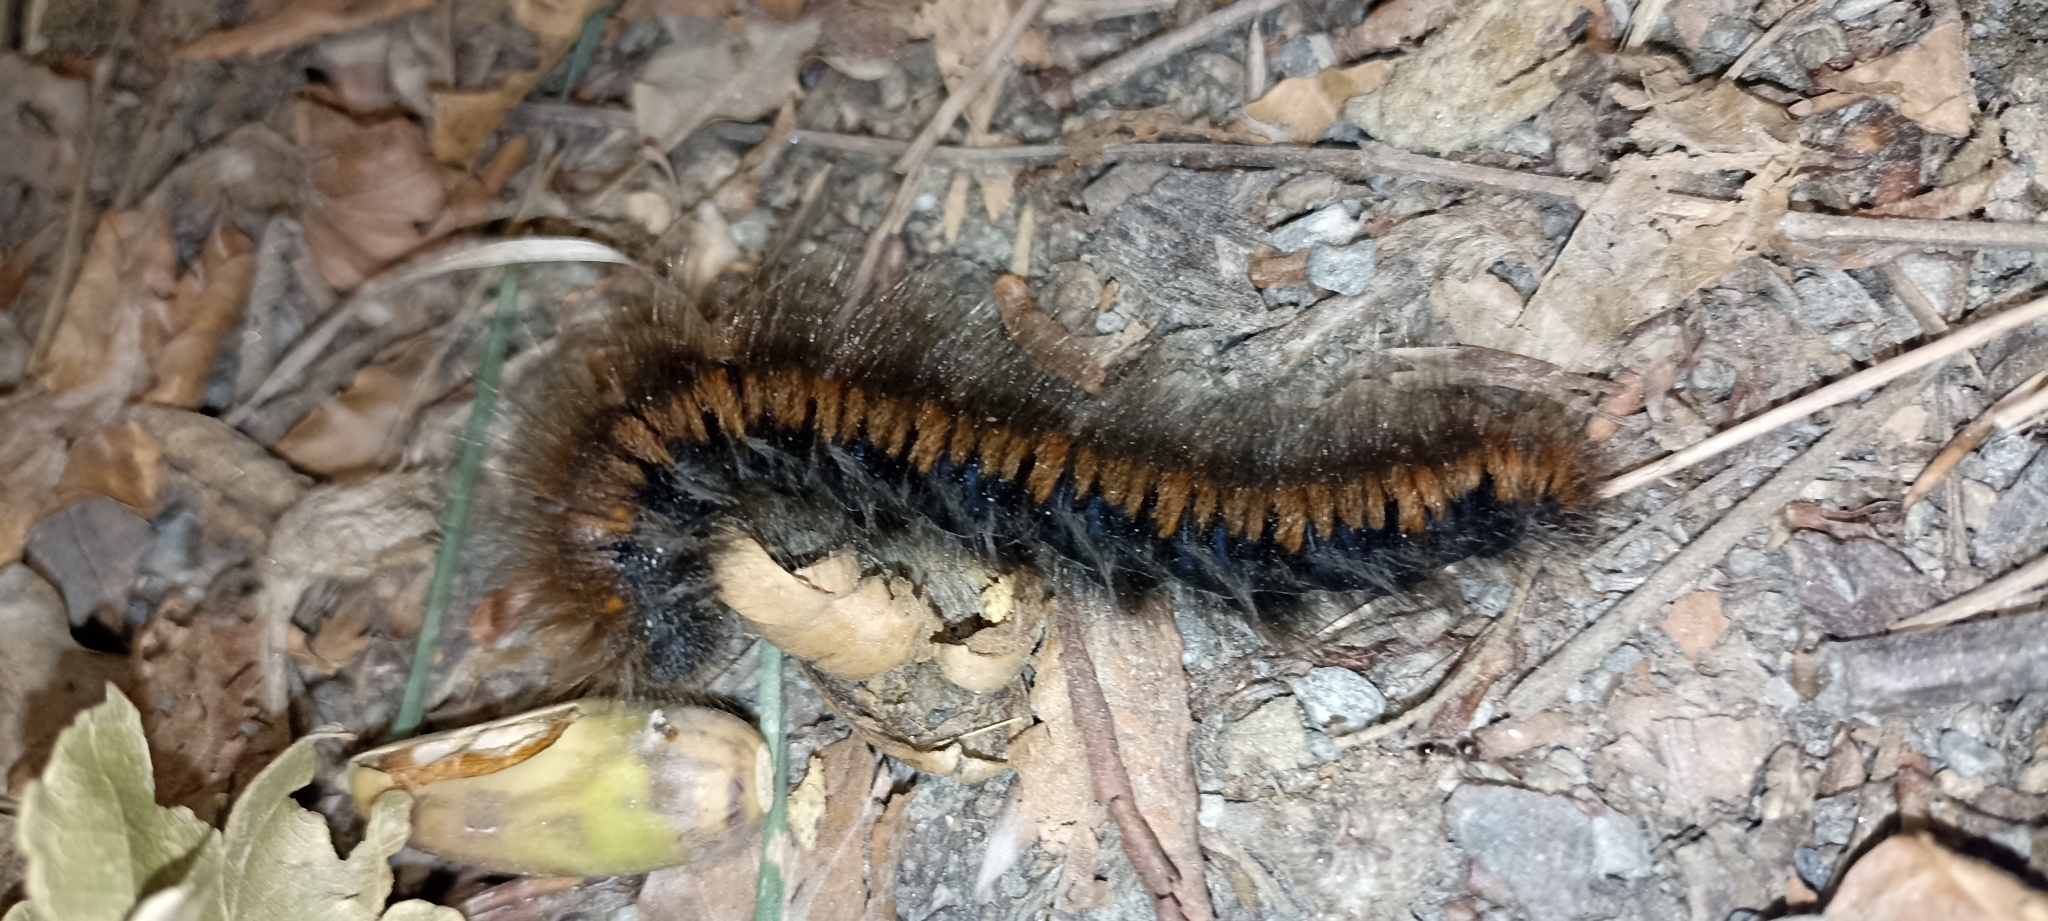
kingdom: Animalia
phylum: Arthropoda
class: Insecta
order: Lepidoptera
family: Lasiocampidae
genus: Macrothylacia
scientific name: Macrothylacia rubi
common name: Fox moth
